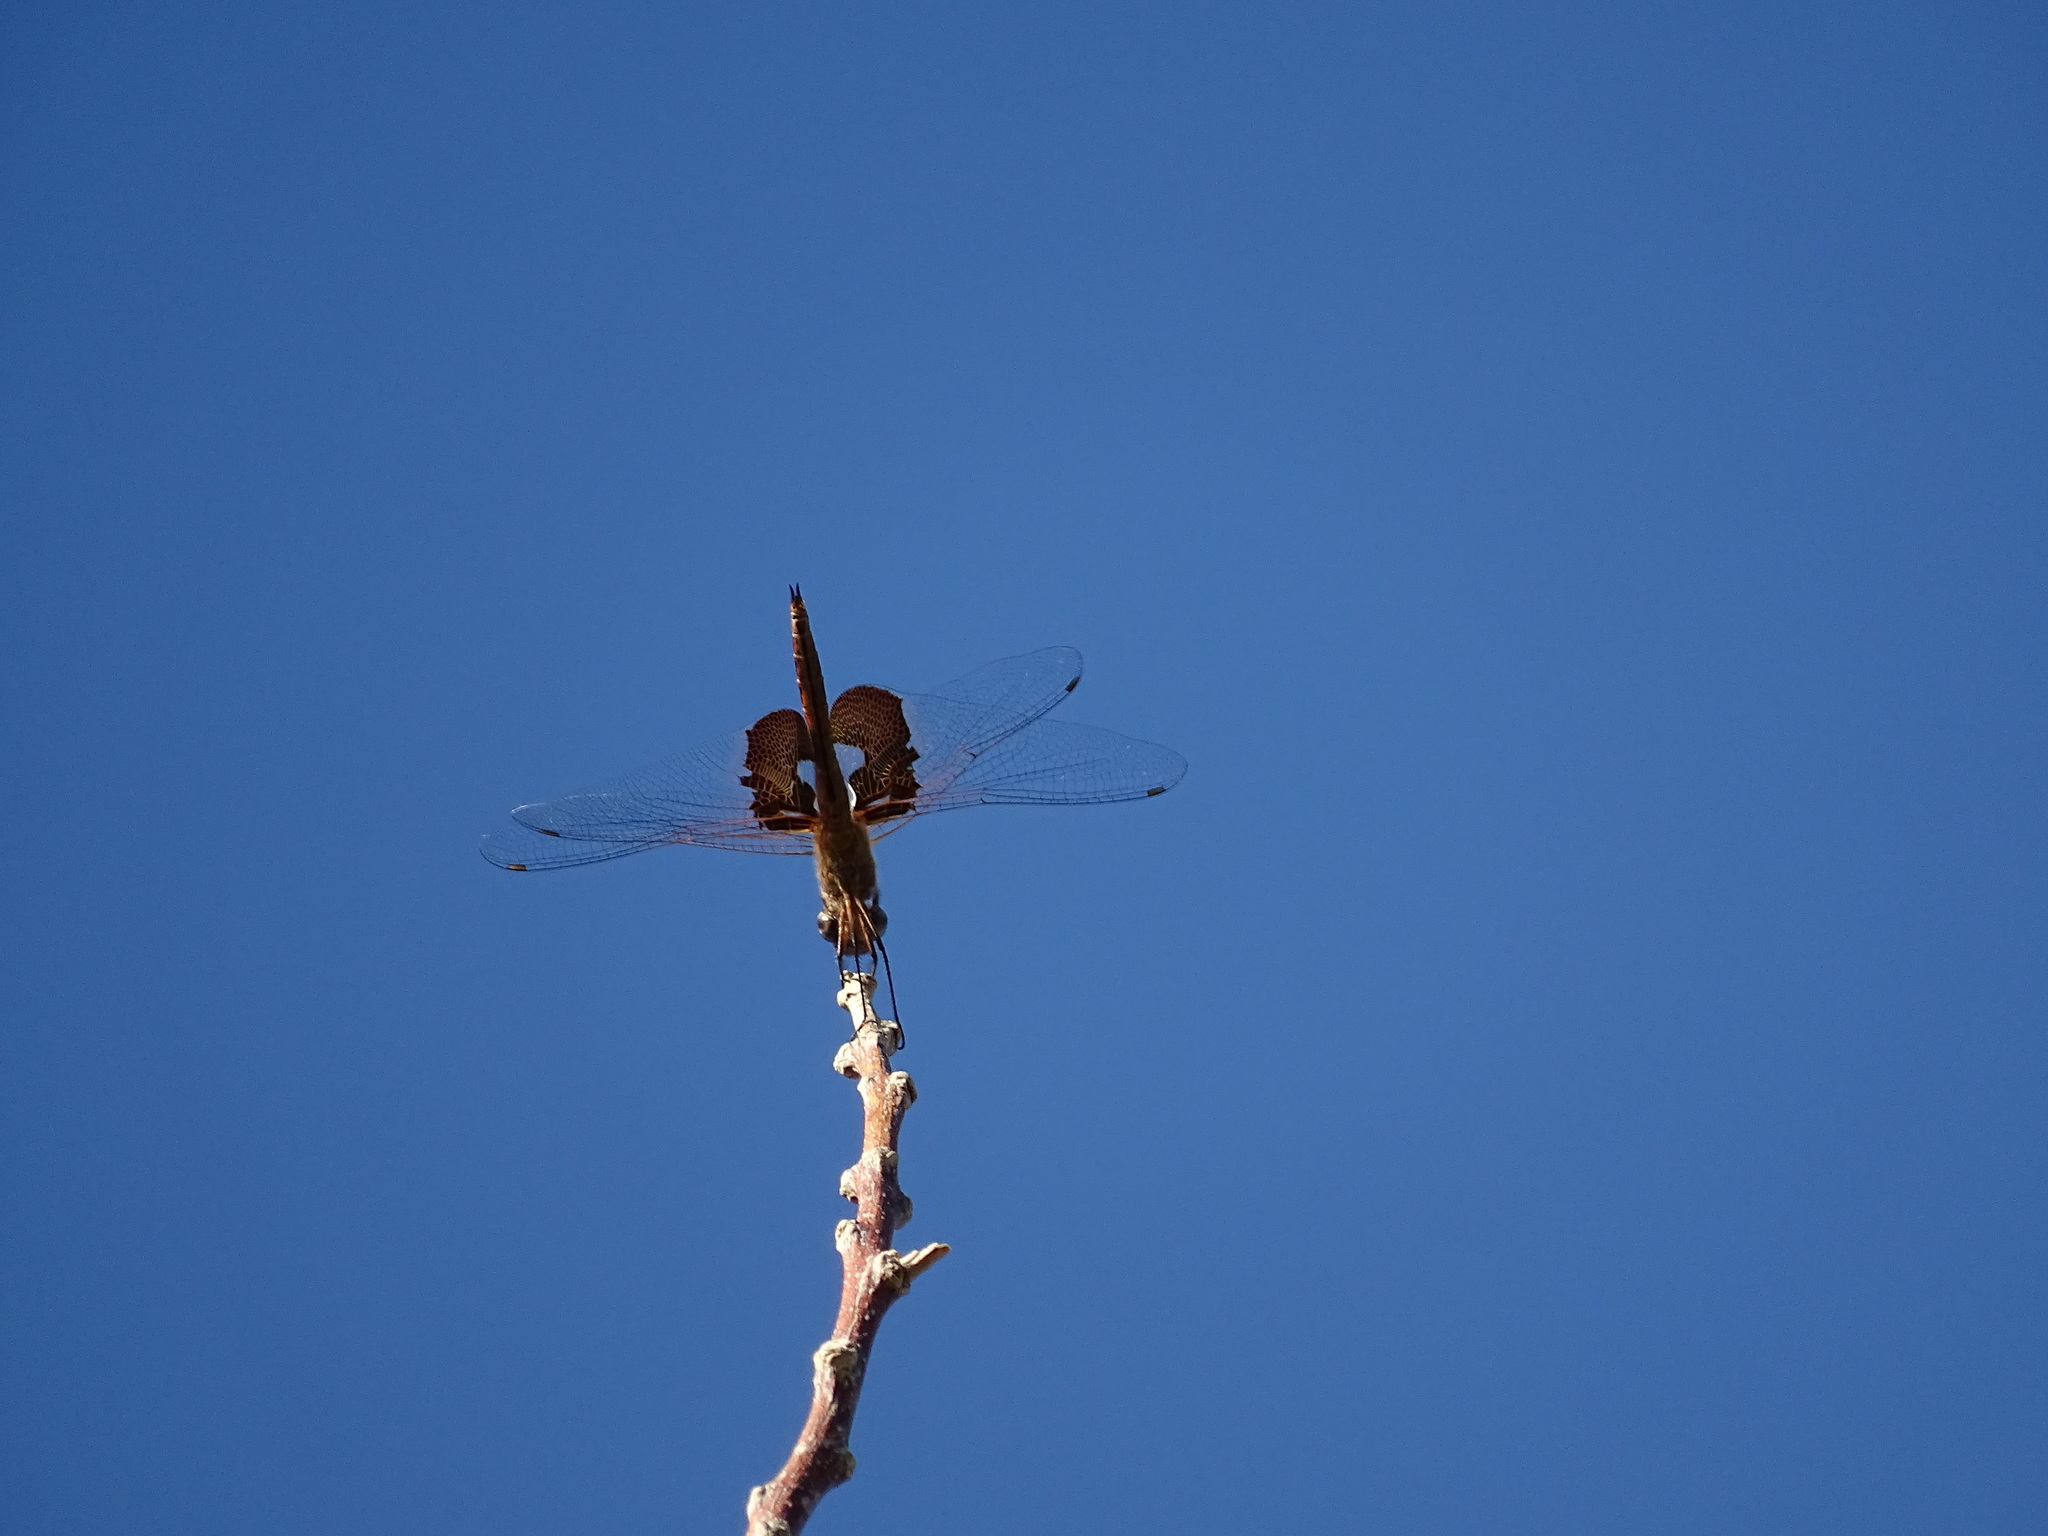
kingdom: Animalia
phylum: Arthropoda
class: Insecta
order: Odonata
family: Libellulidae
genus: Tramea
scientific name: Tramea onusta
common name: Red saddlebags
